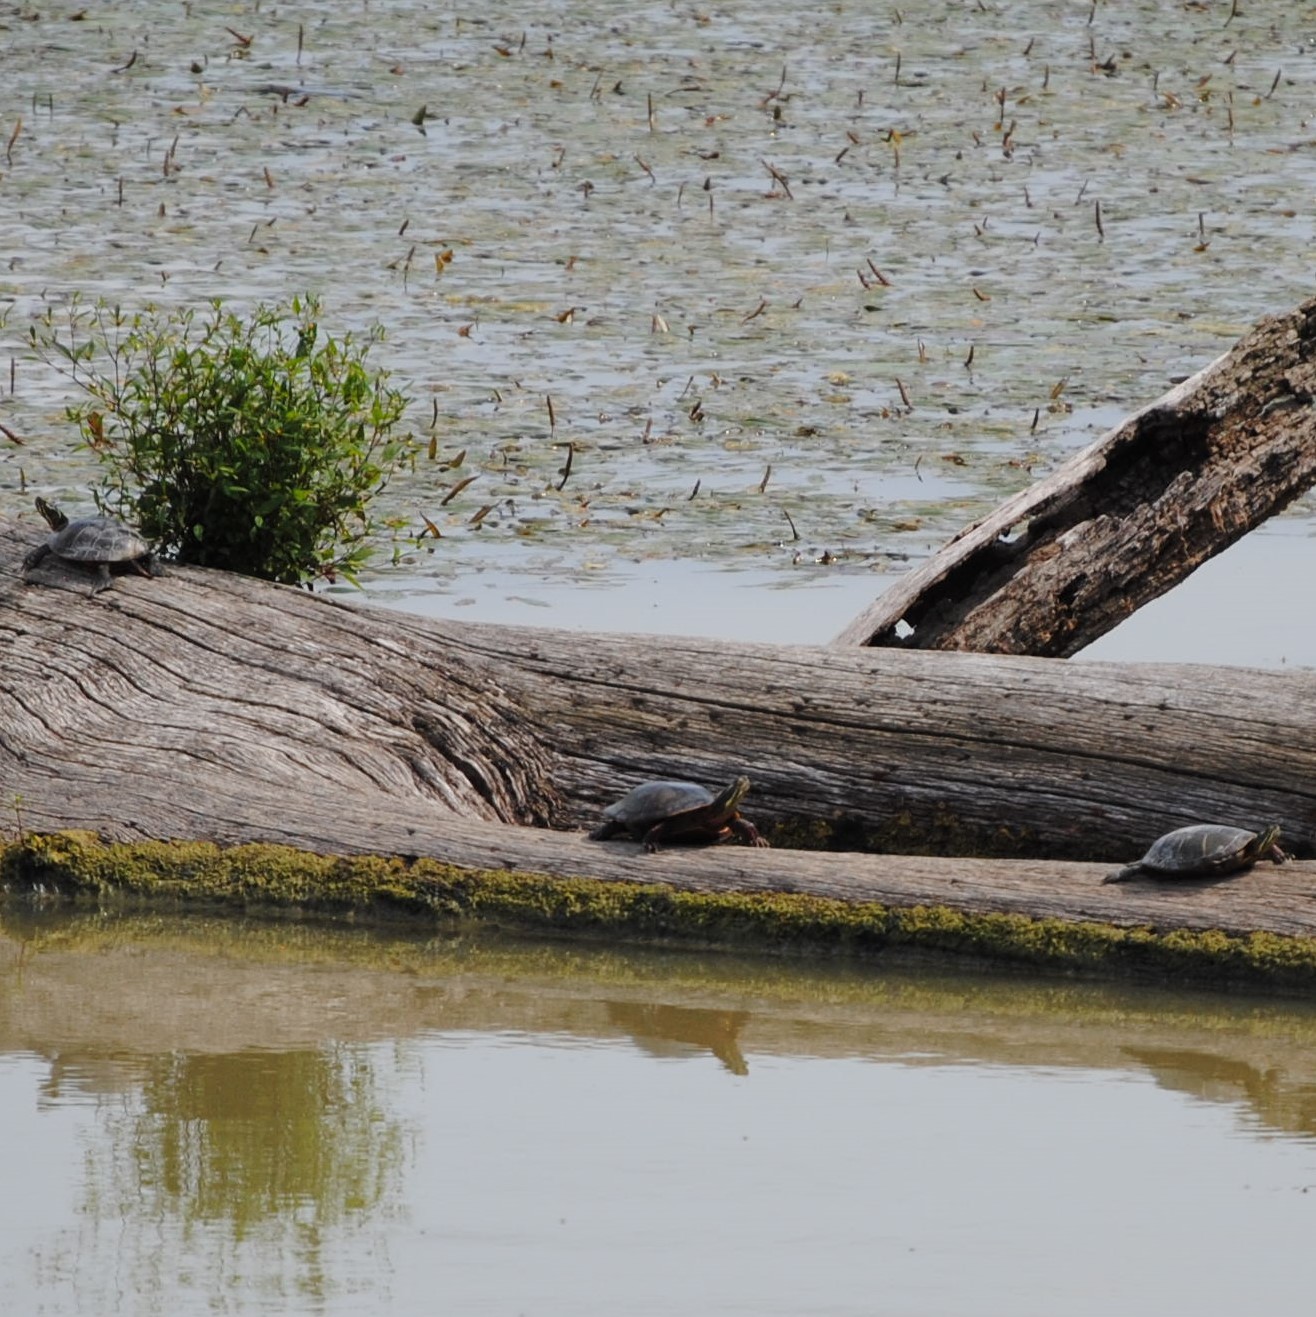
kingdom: Animalia
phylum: Chordata
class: Testudines
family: Emydidae
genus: Chrysemys
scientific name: Chrysemys picta
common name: Painted turtle
